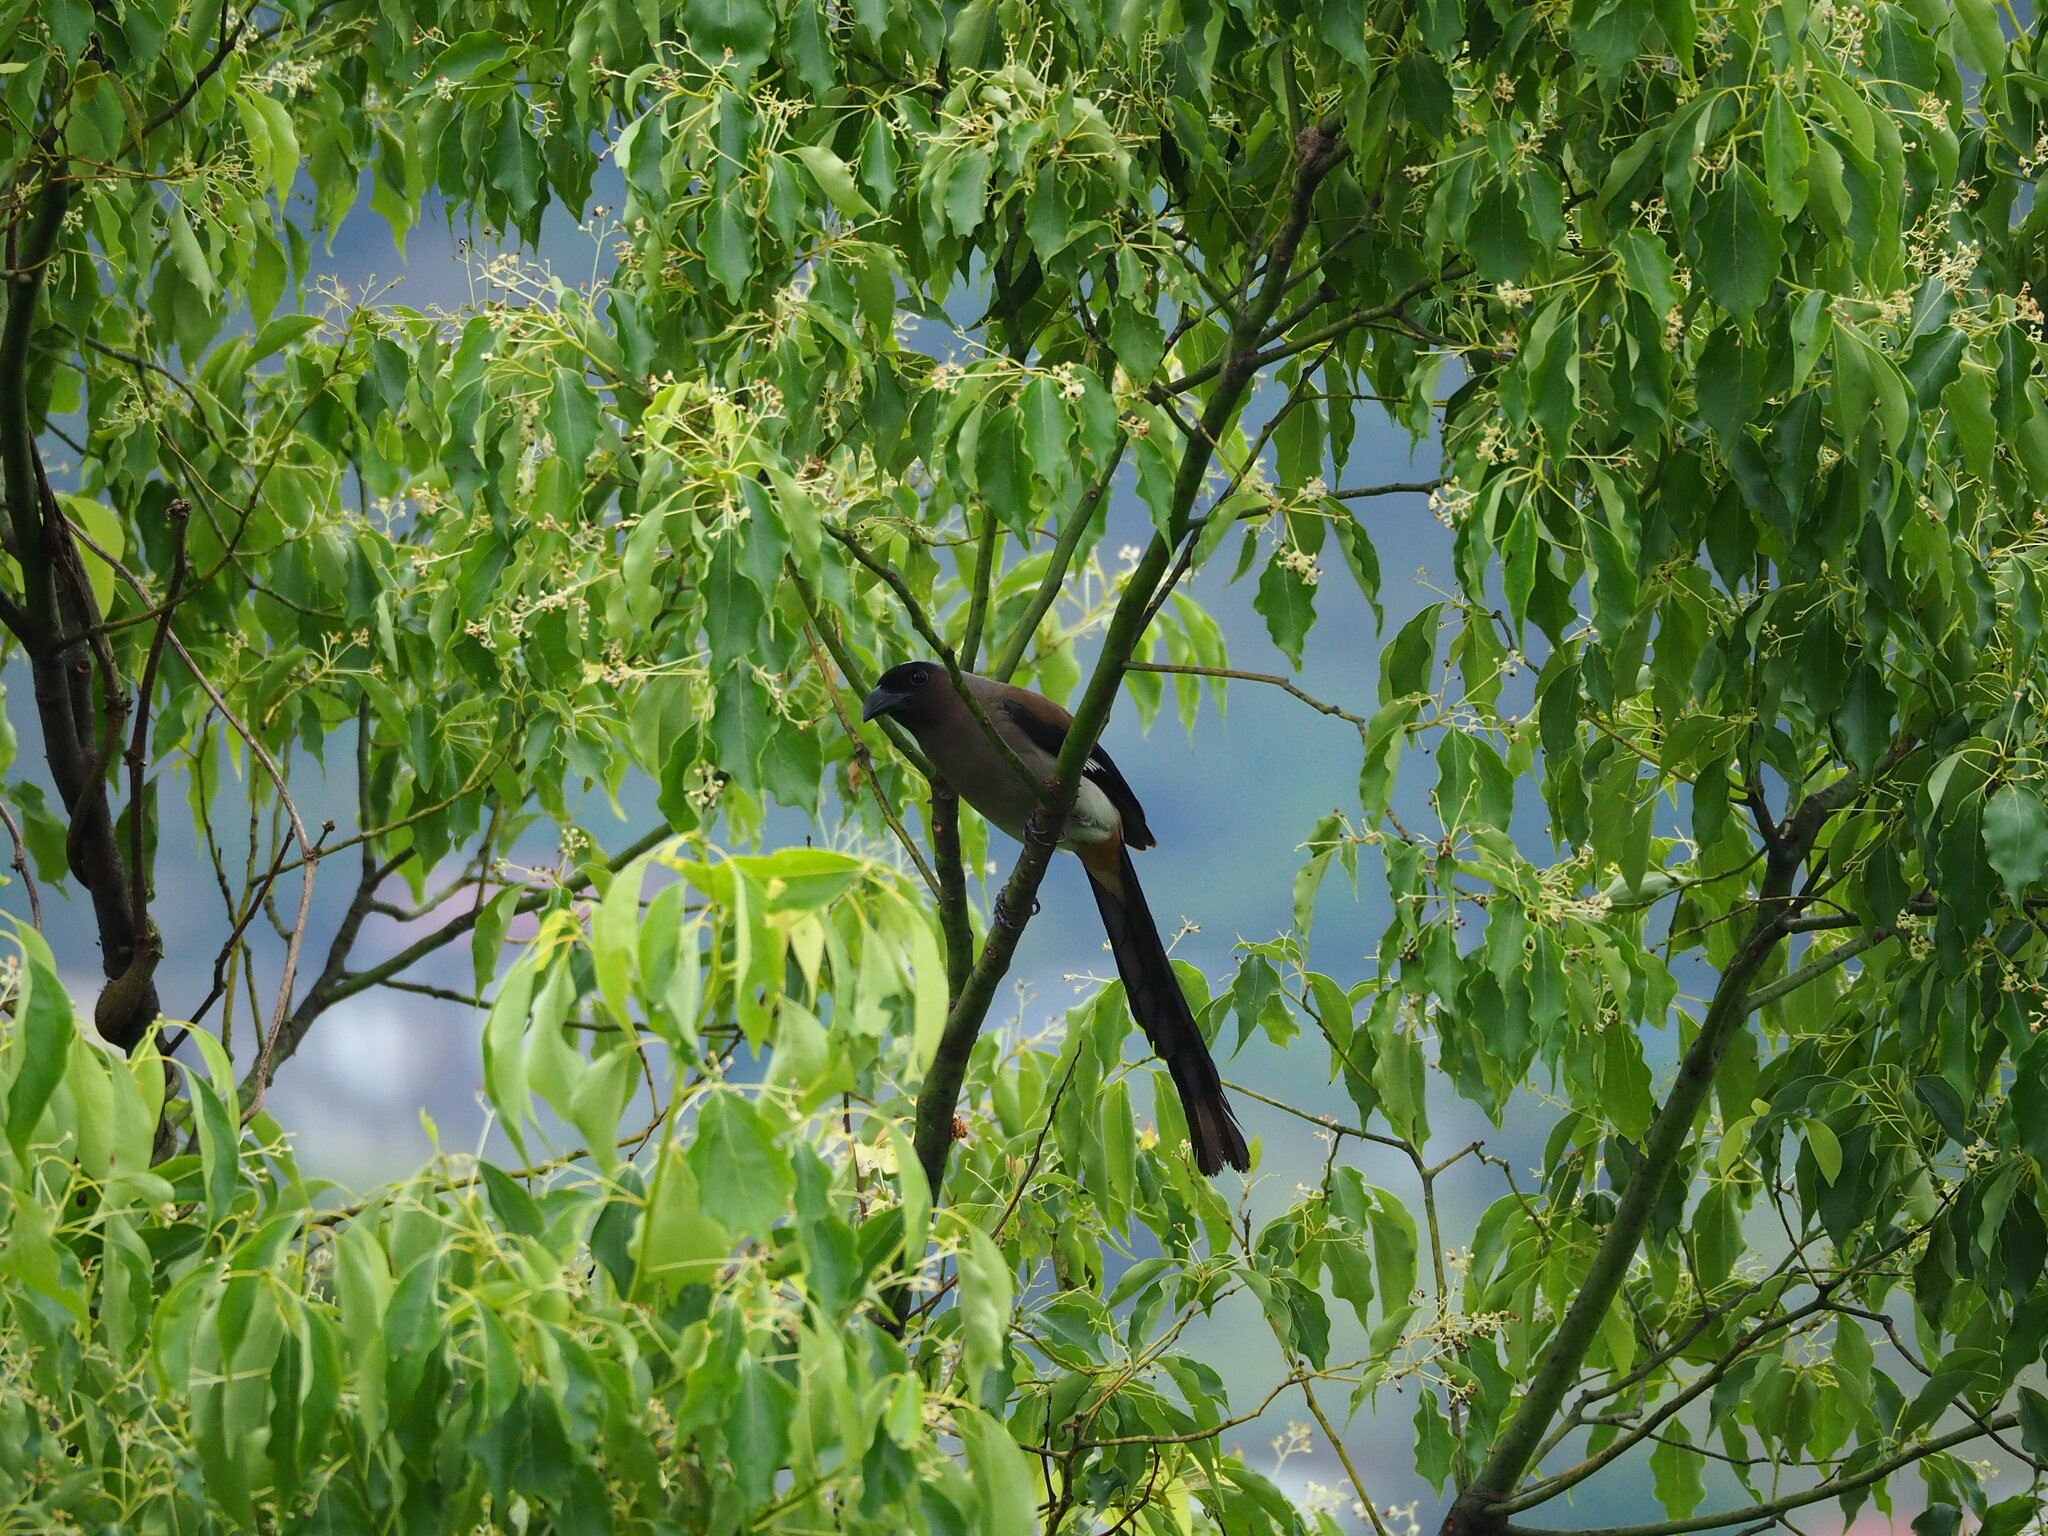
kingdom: Animalia
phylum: Chordata
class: Aves
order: Passeriformes
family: Corvidae
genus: Dendrocitta
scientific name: Dendrocitta formosae
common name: Grey treepie
